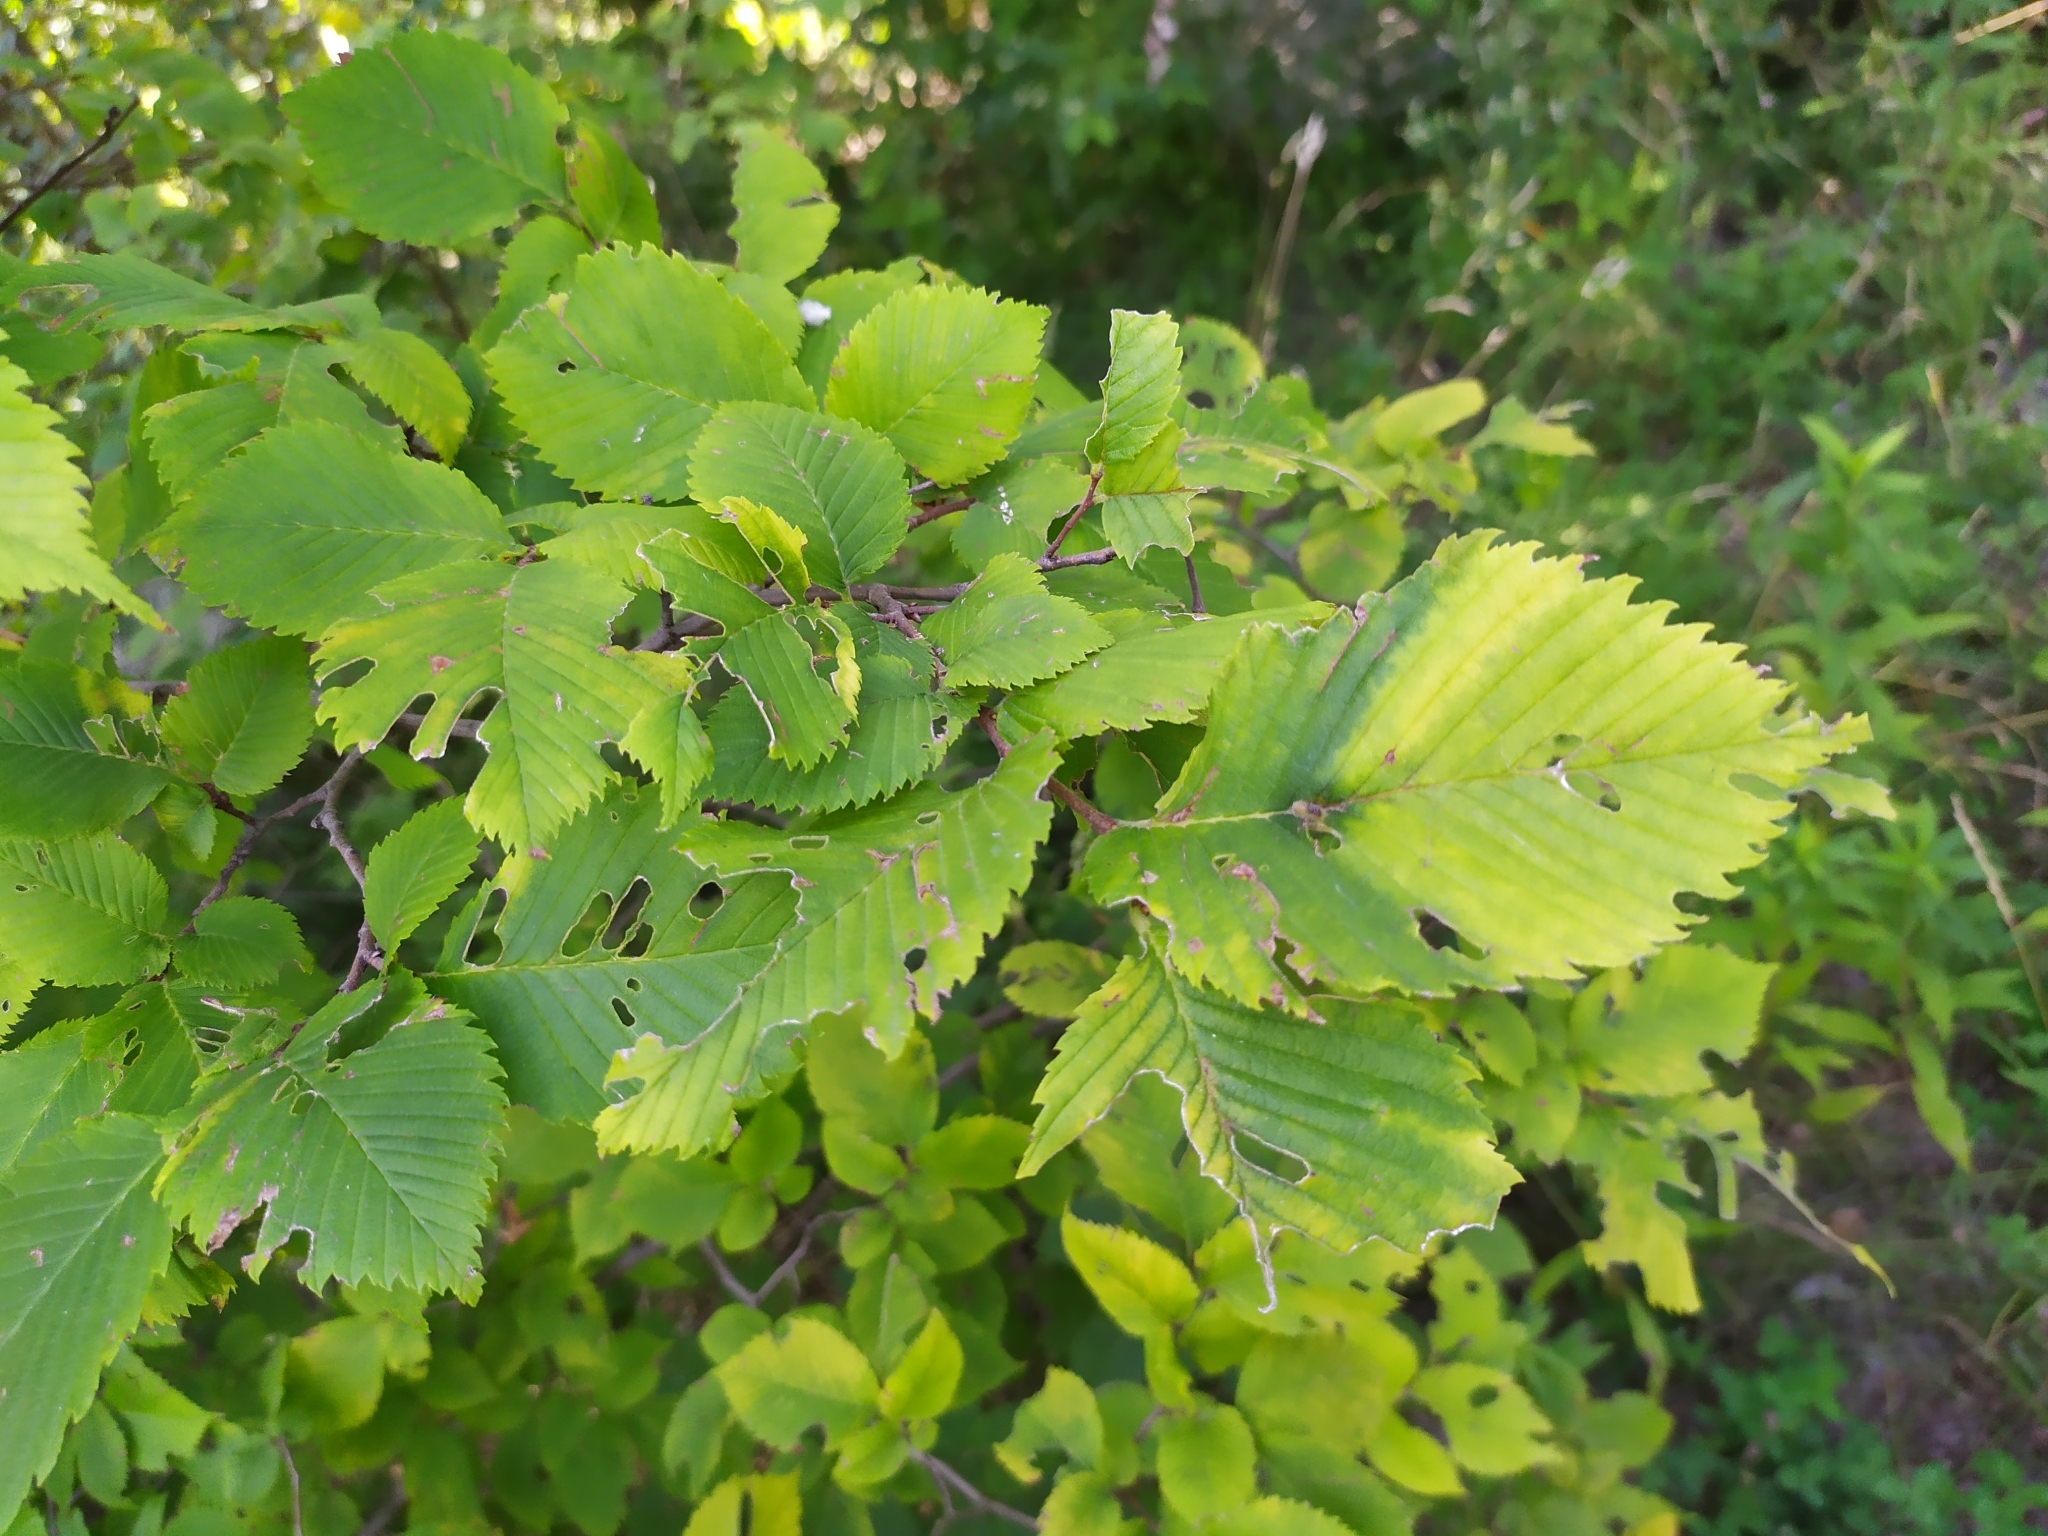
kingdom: Animalia
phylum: Arthropoda
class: Insecta
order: Hemiptera
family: Aphididae
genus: Colopha
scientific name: Colopha compressa
